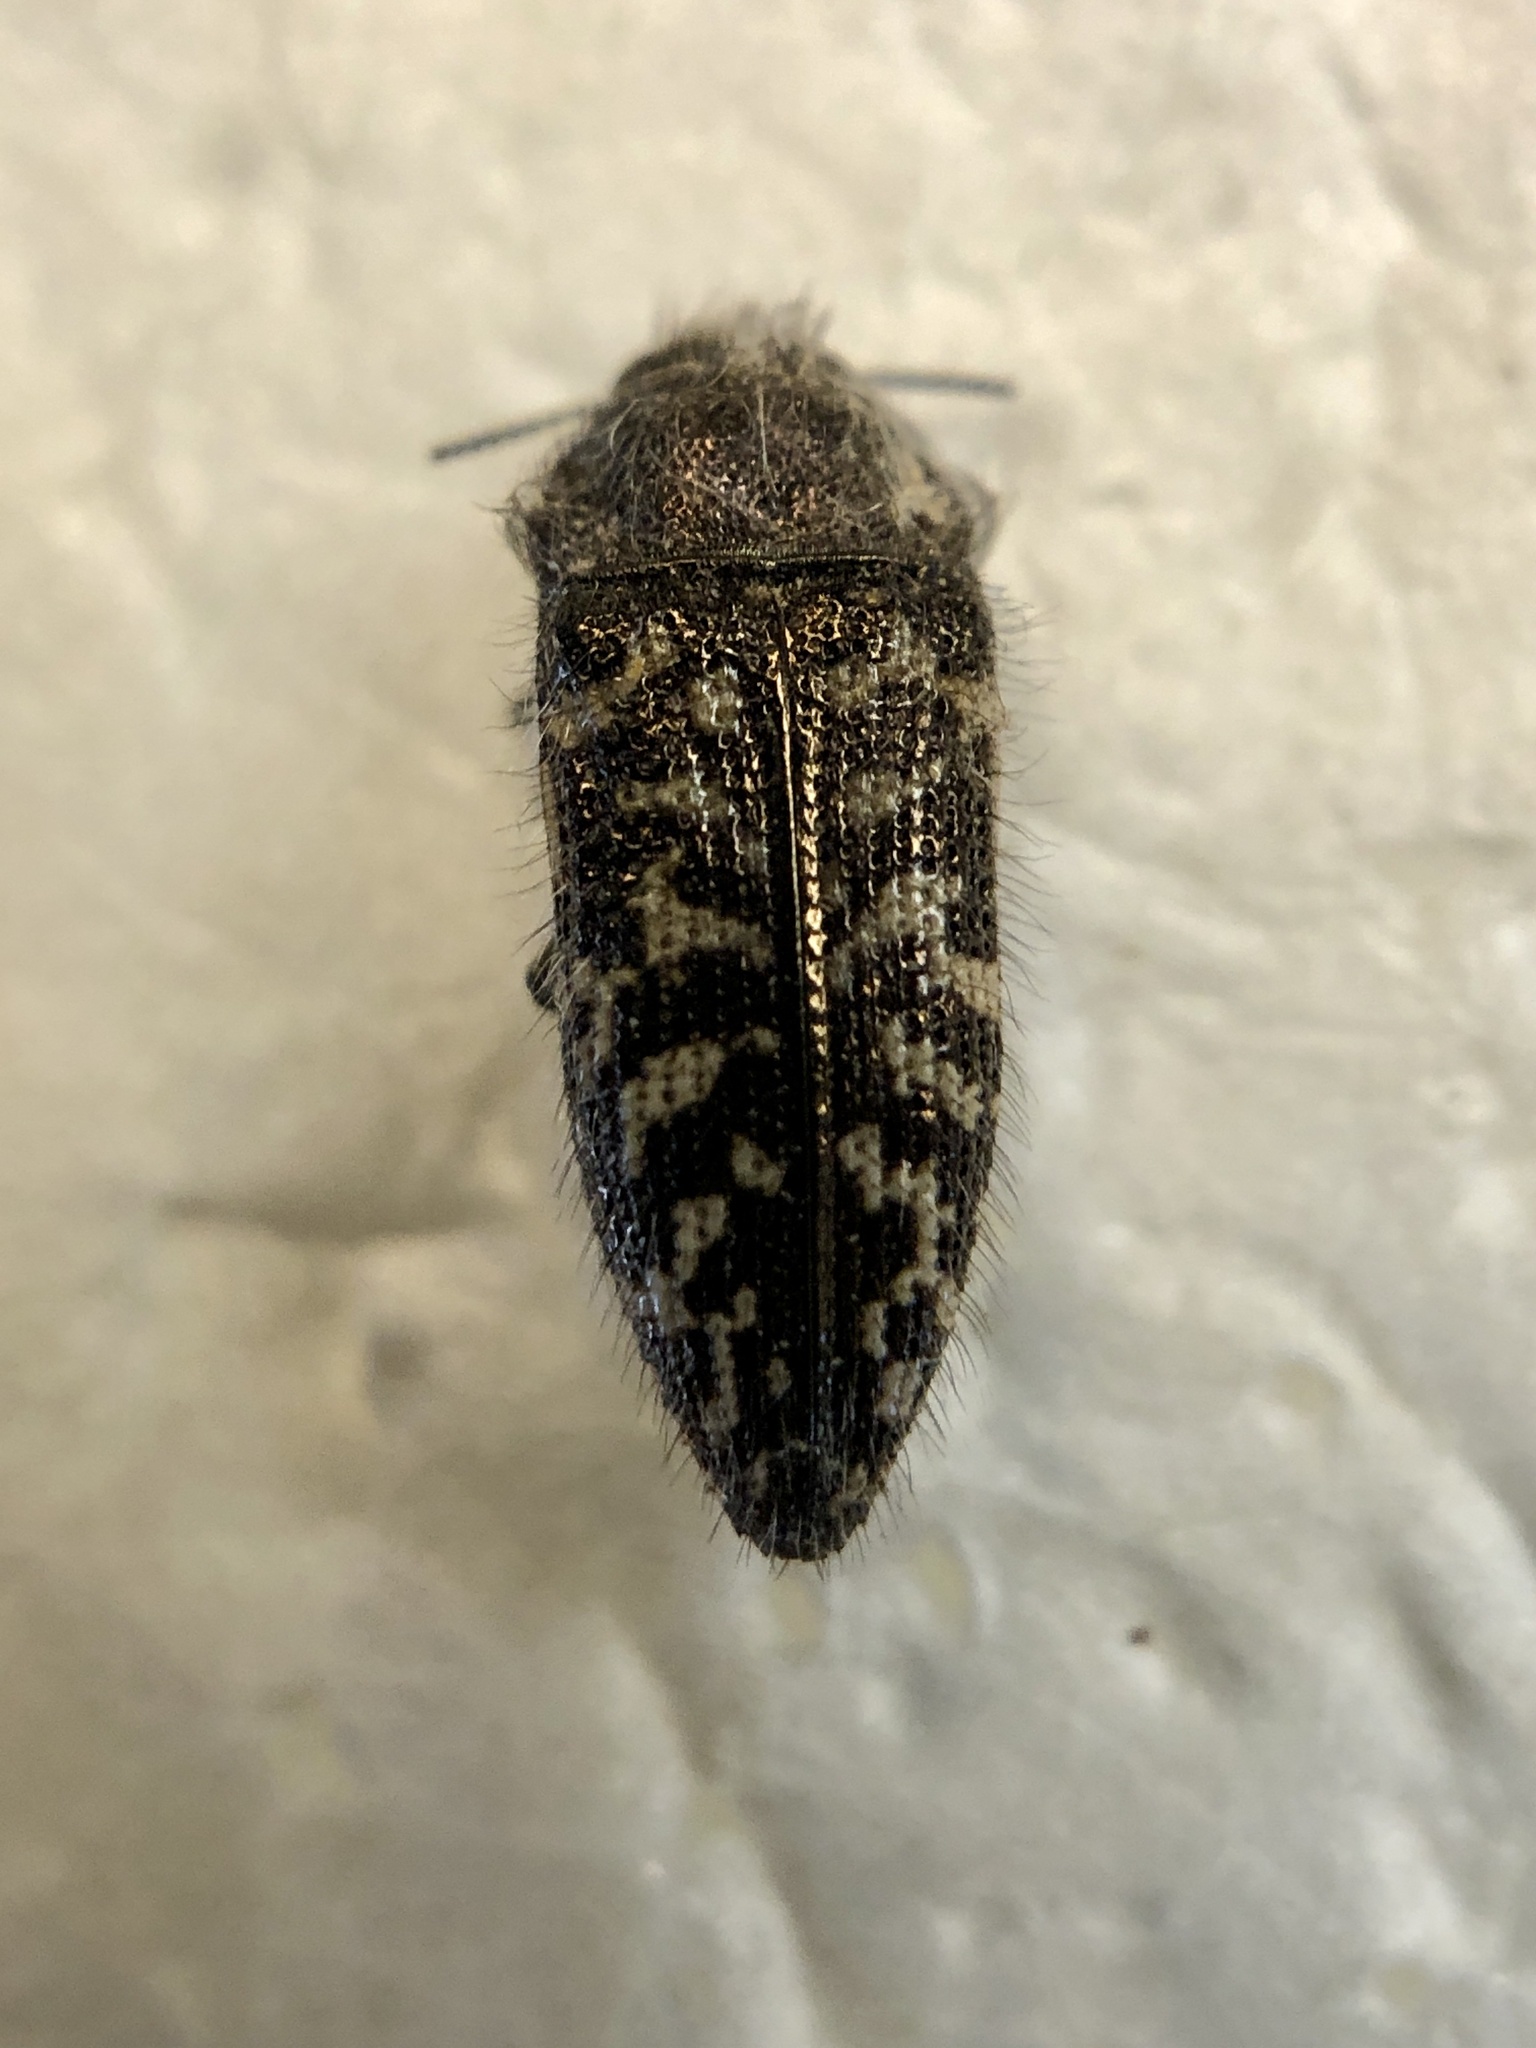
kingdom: Animalia
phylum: Arthropoda
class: Insecta
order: Coleoptera
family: Buprestidae
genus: Acmaeodera
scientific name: Acmaeodera labyrinthica
